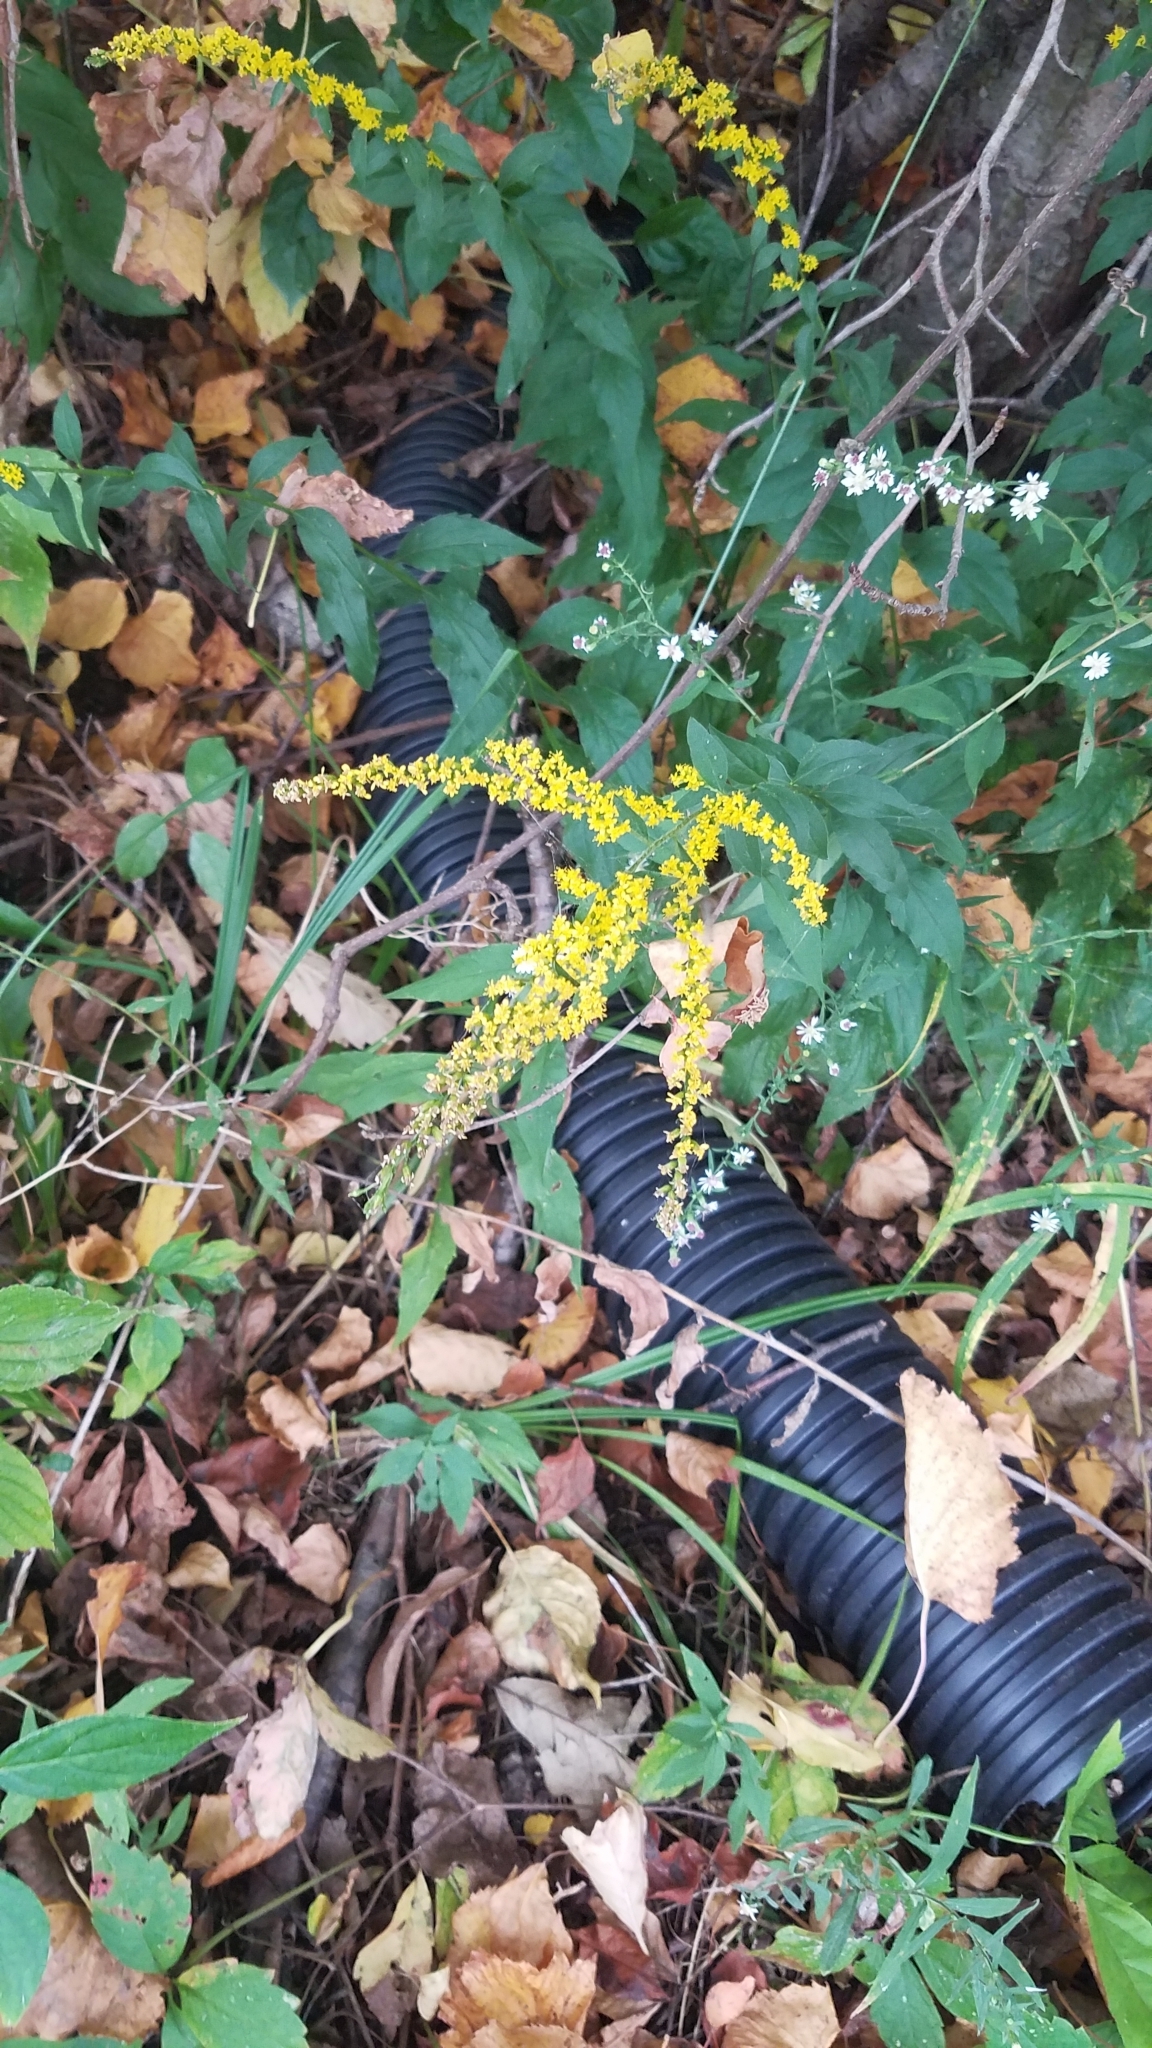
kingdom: Plantae
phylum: Tracheophyta
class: Magnoliopsida
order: Asterales
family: Asteraceae
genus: Solidago
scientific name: Solidago ulmifolia
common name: Elm-leaf goldenrod
